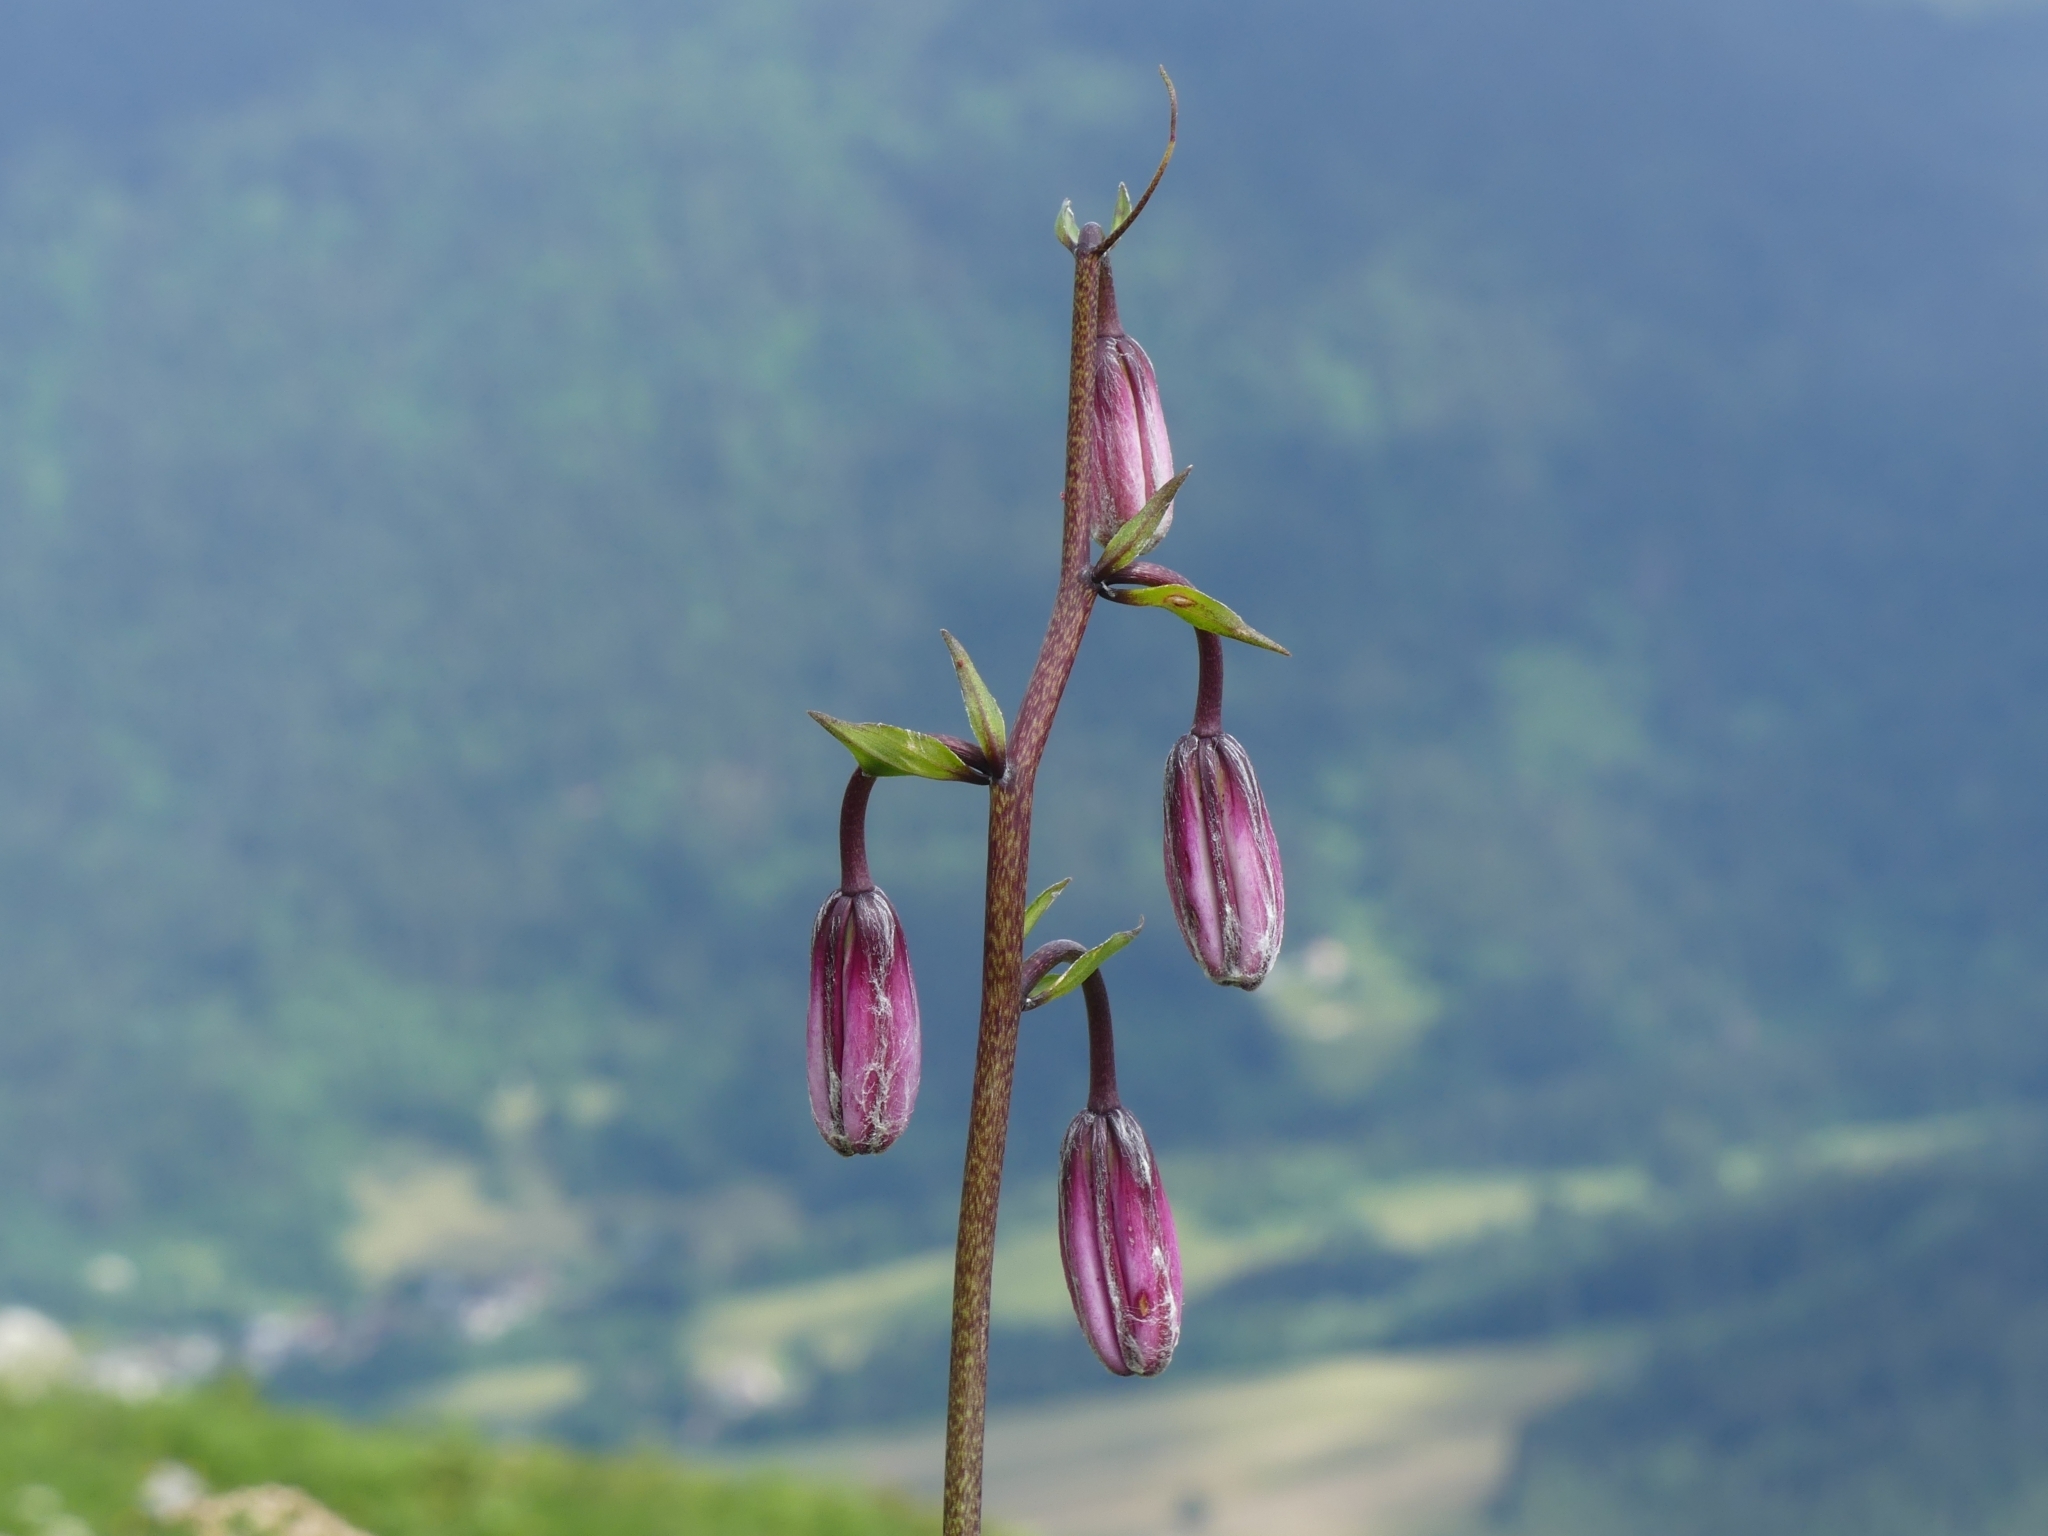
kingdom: Plantae
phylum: Tracheophyta
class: Liliopsida
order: Liliales
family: Liliaceae
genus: Lilium
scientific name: Lilium martagon
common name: Martagon lily
